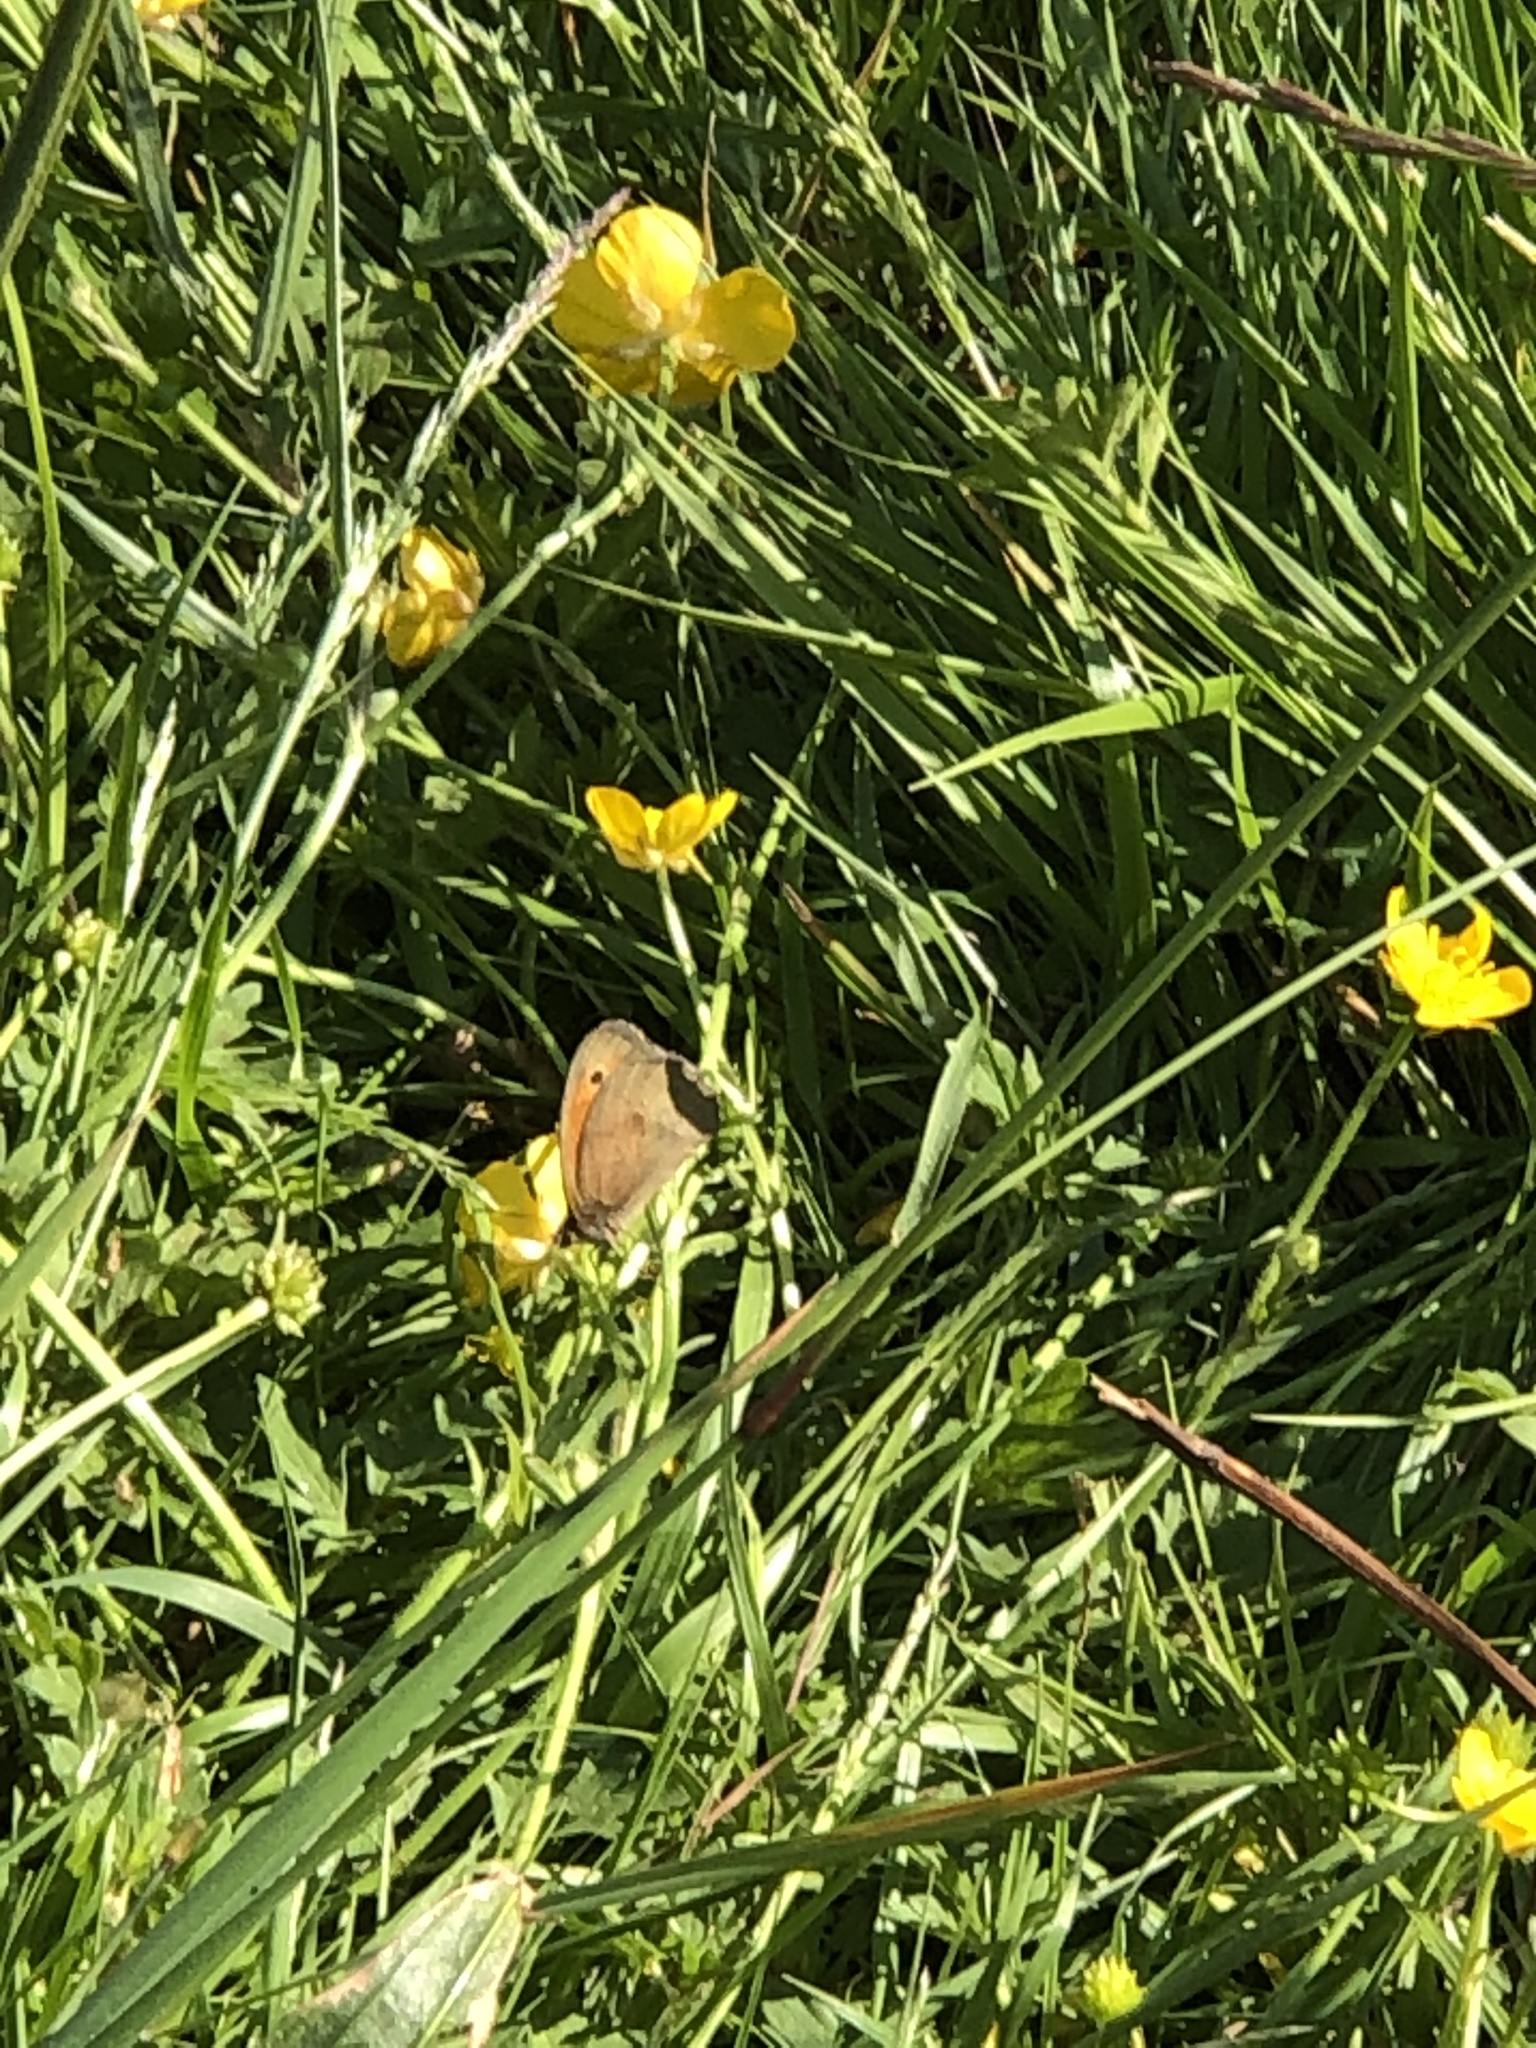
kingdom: Animalia
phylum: Arthropoda
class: Insecta
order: Lepidoptera
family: Nymphalidae
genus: Maniola
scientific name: Maniola jurtina
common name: Meadow brown
